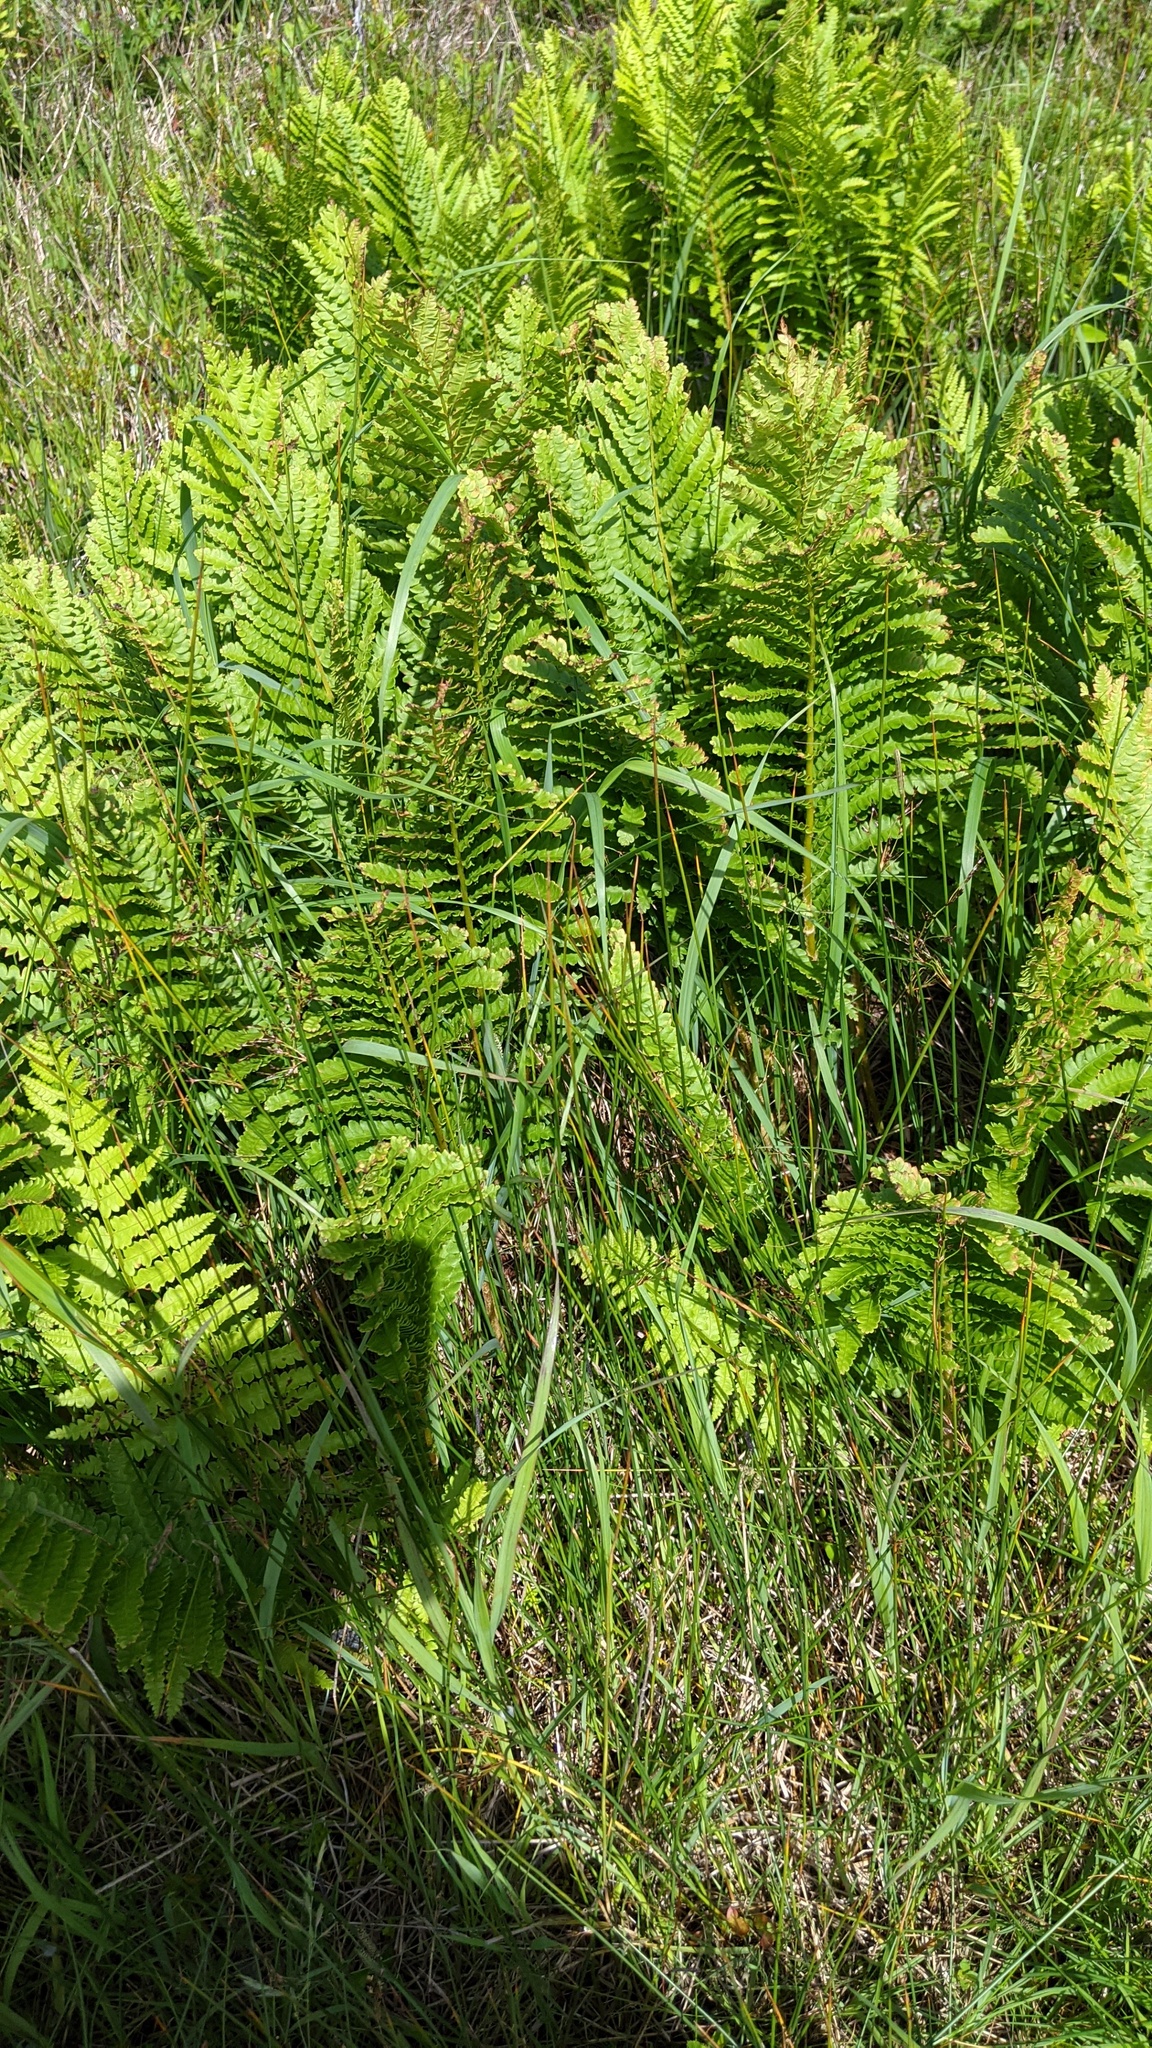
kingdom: Plantae
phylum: Tracheophyta
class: Polypodiopsida
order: Osmundales
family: Osmundaceae
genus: Osmundastrum
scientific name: Osmundastrum cinnamomeum
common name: Cinnamon fern
